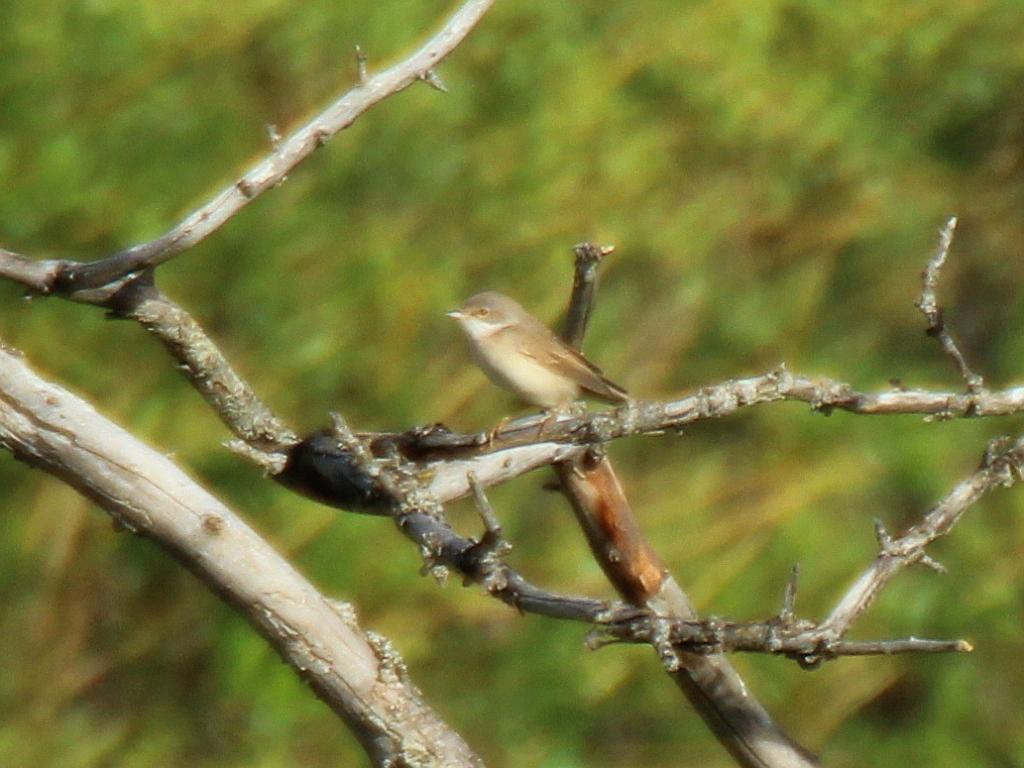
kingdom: Animalia
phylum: Chordata
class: Aves
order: Passeriformes
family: Sylviidae
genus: Sylvia
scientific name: Sylvia communis
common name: Common whitethroat
